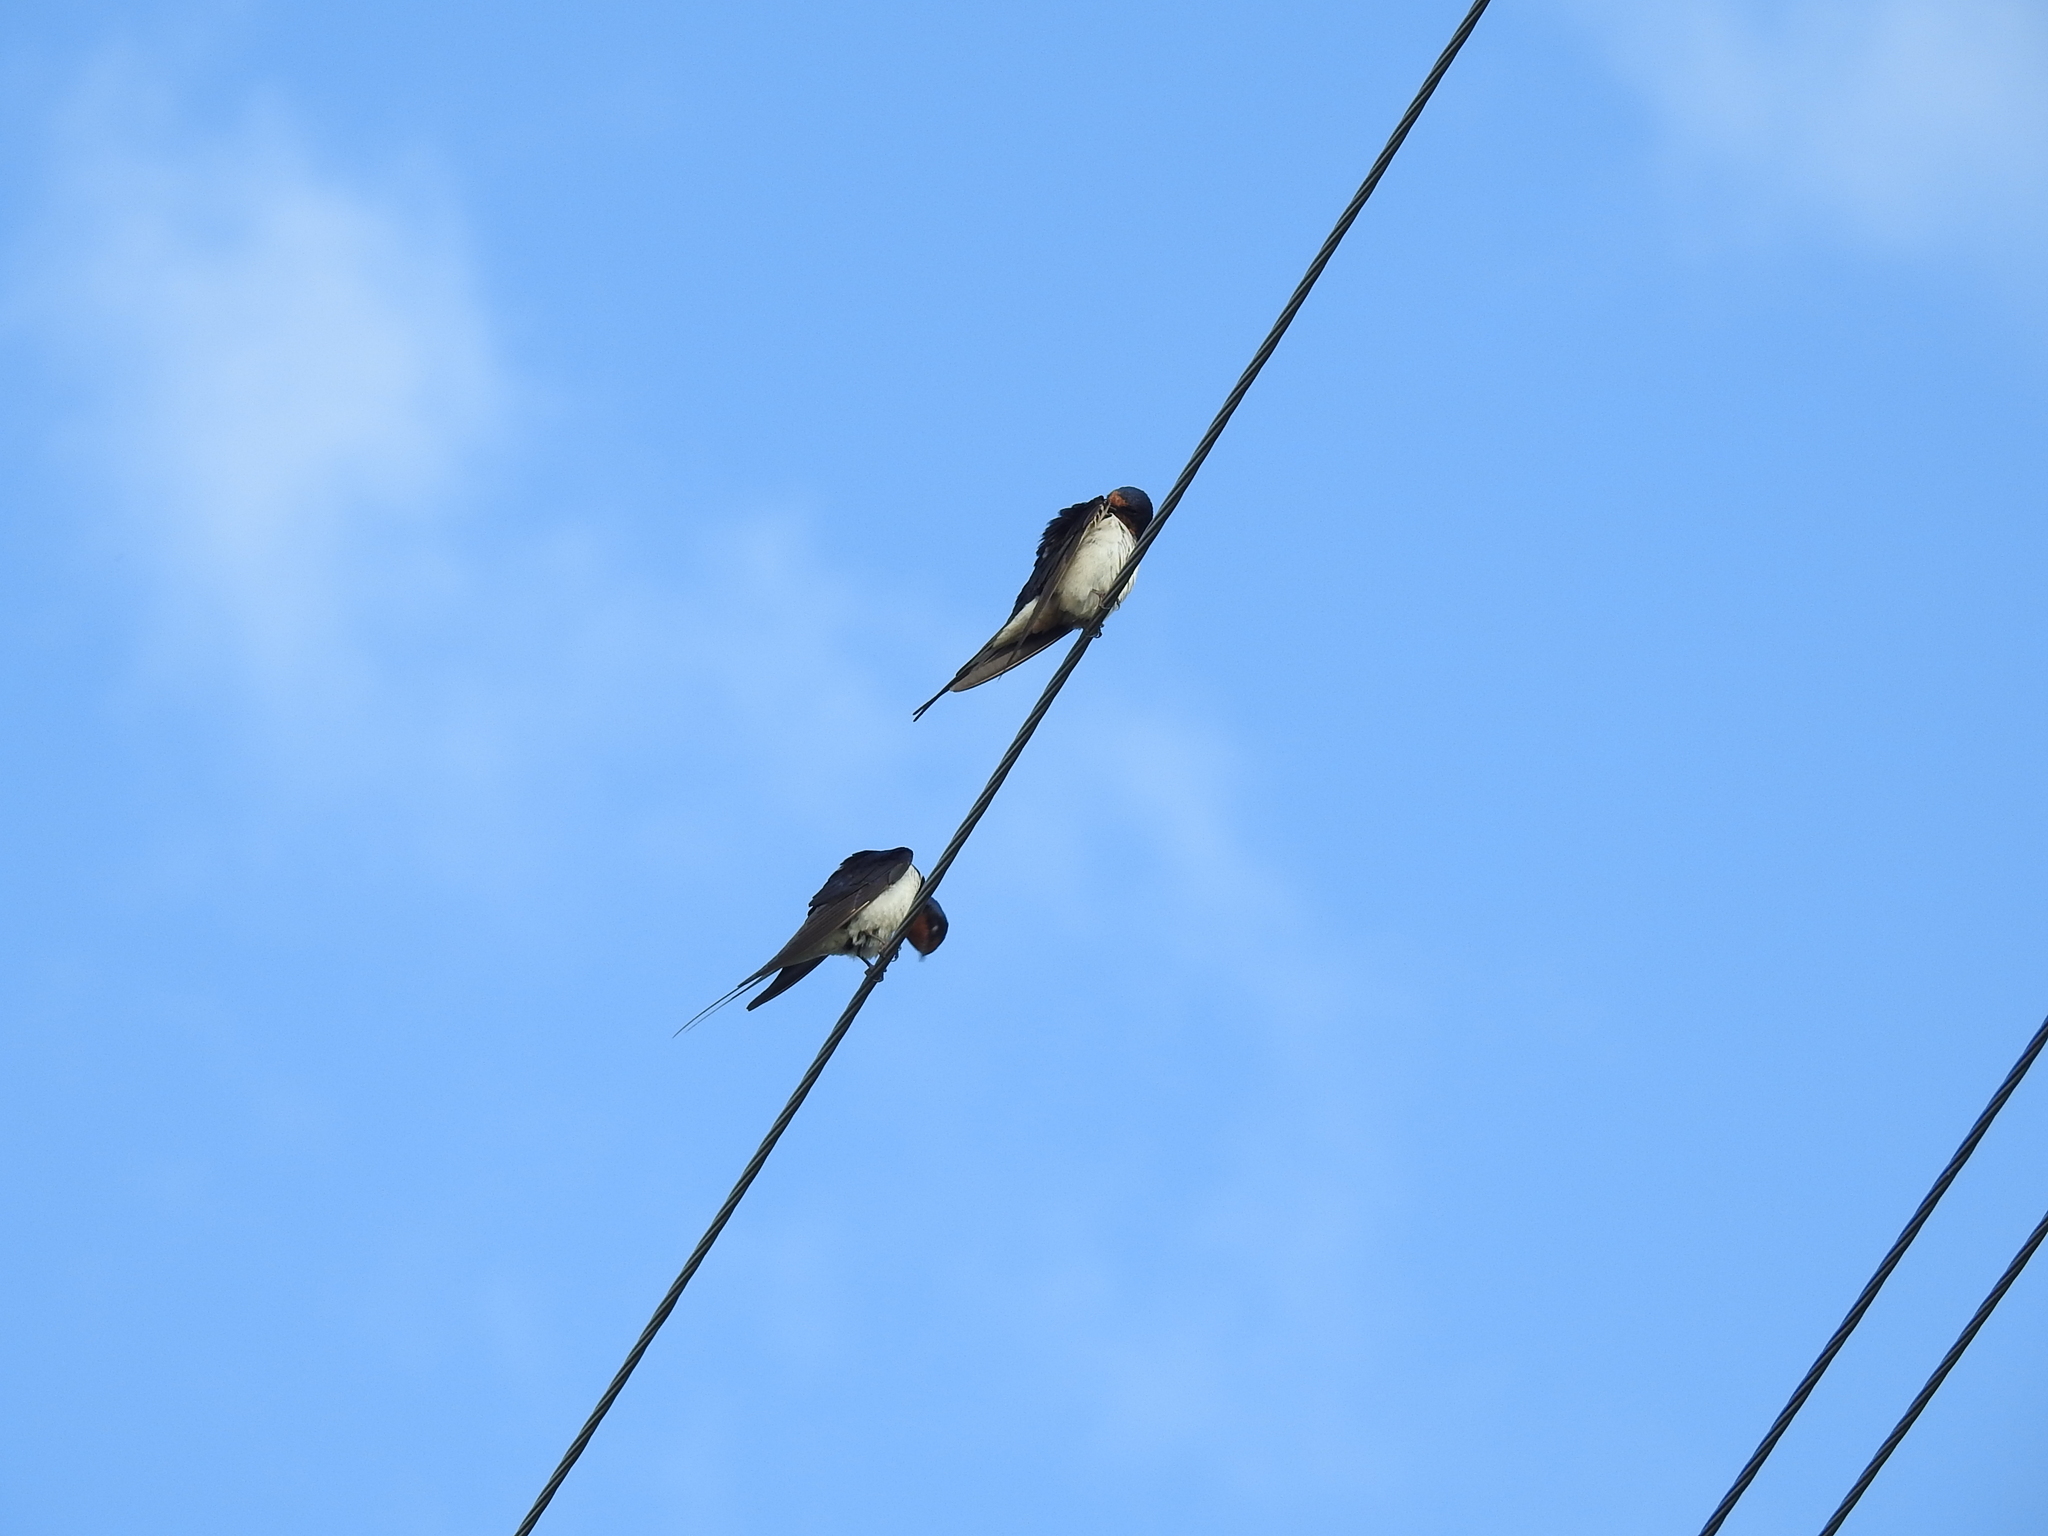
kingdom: Animalia
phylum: Chordata
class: Aves
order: Passeriformes
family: Hirundinidae
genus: Hirundo
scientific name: Hirundo rustica
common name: Barn swallow
